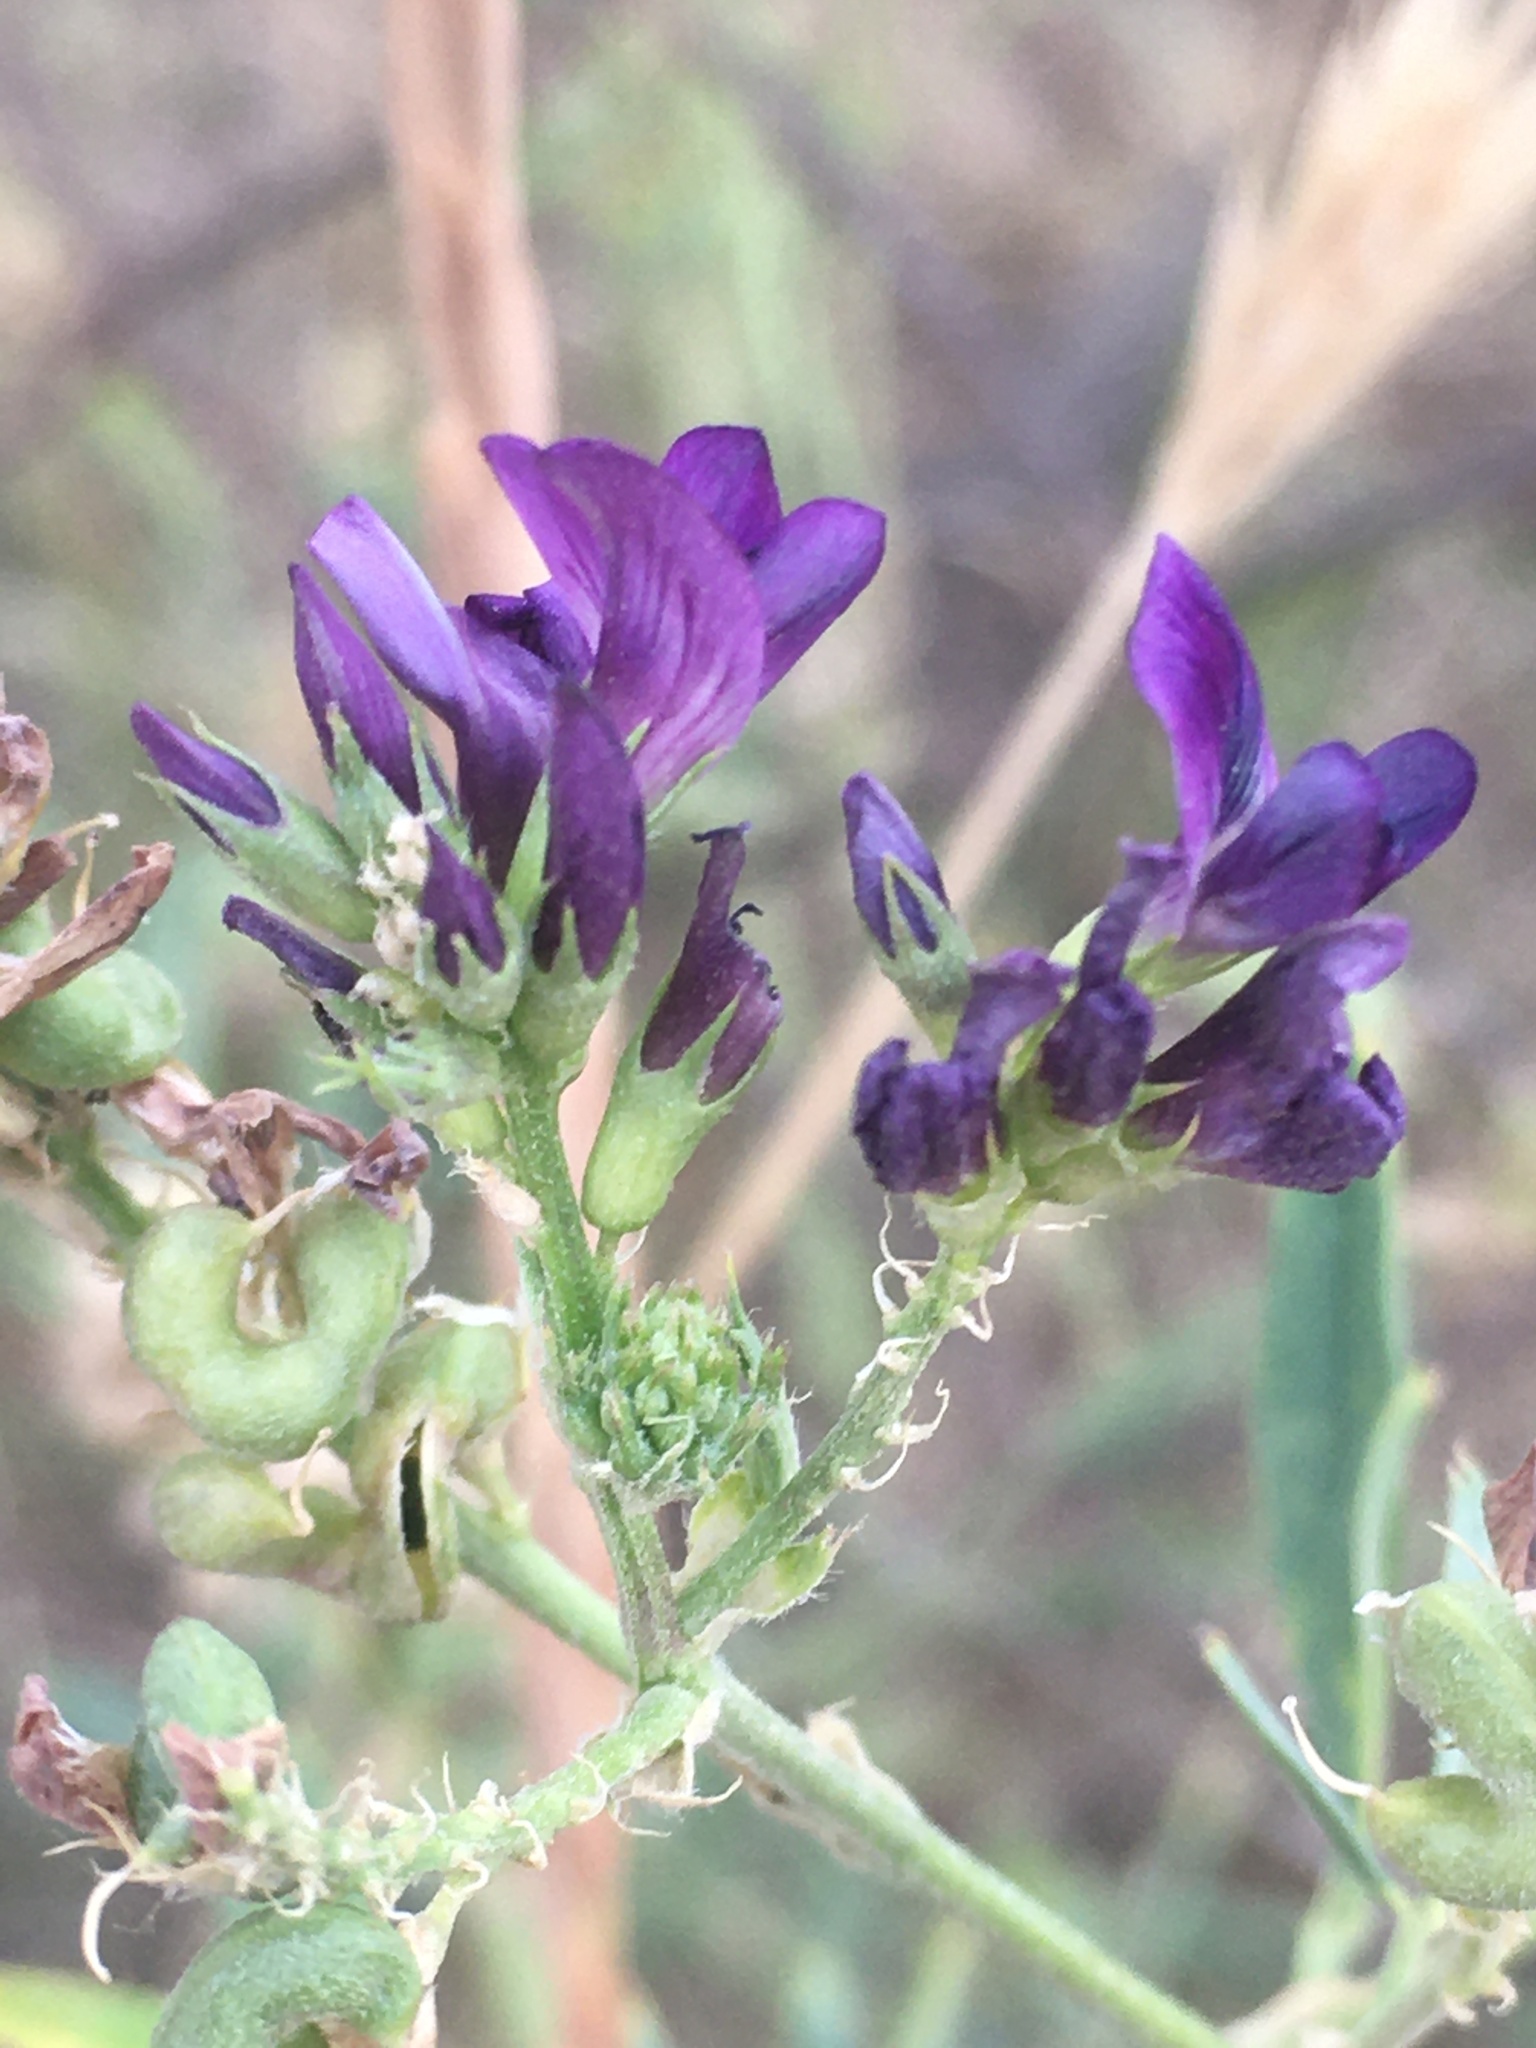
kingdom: Plantae
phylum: Tracheophyta
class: Magnoliopsida
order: Fabales
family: Fabaceae
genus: Medicago
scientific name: Medicago sativa
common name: Alfalfa
